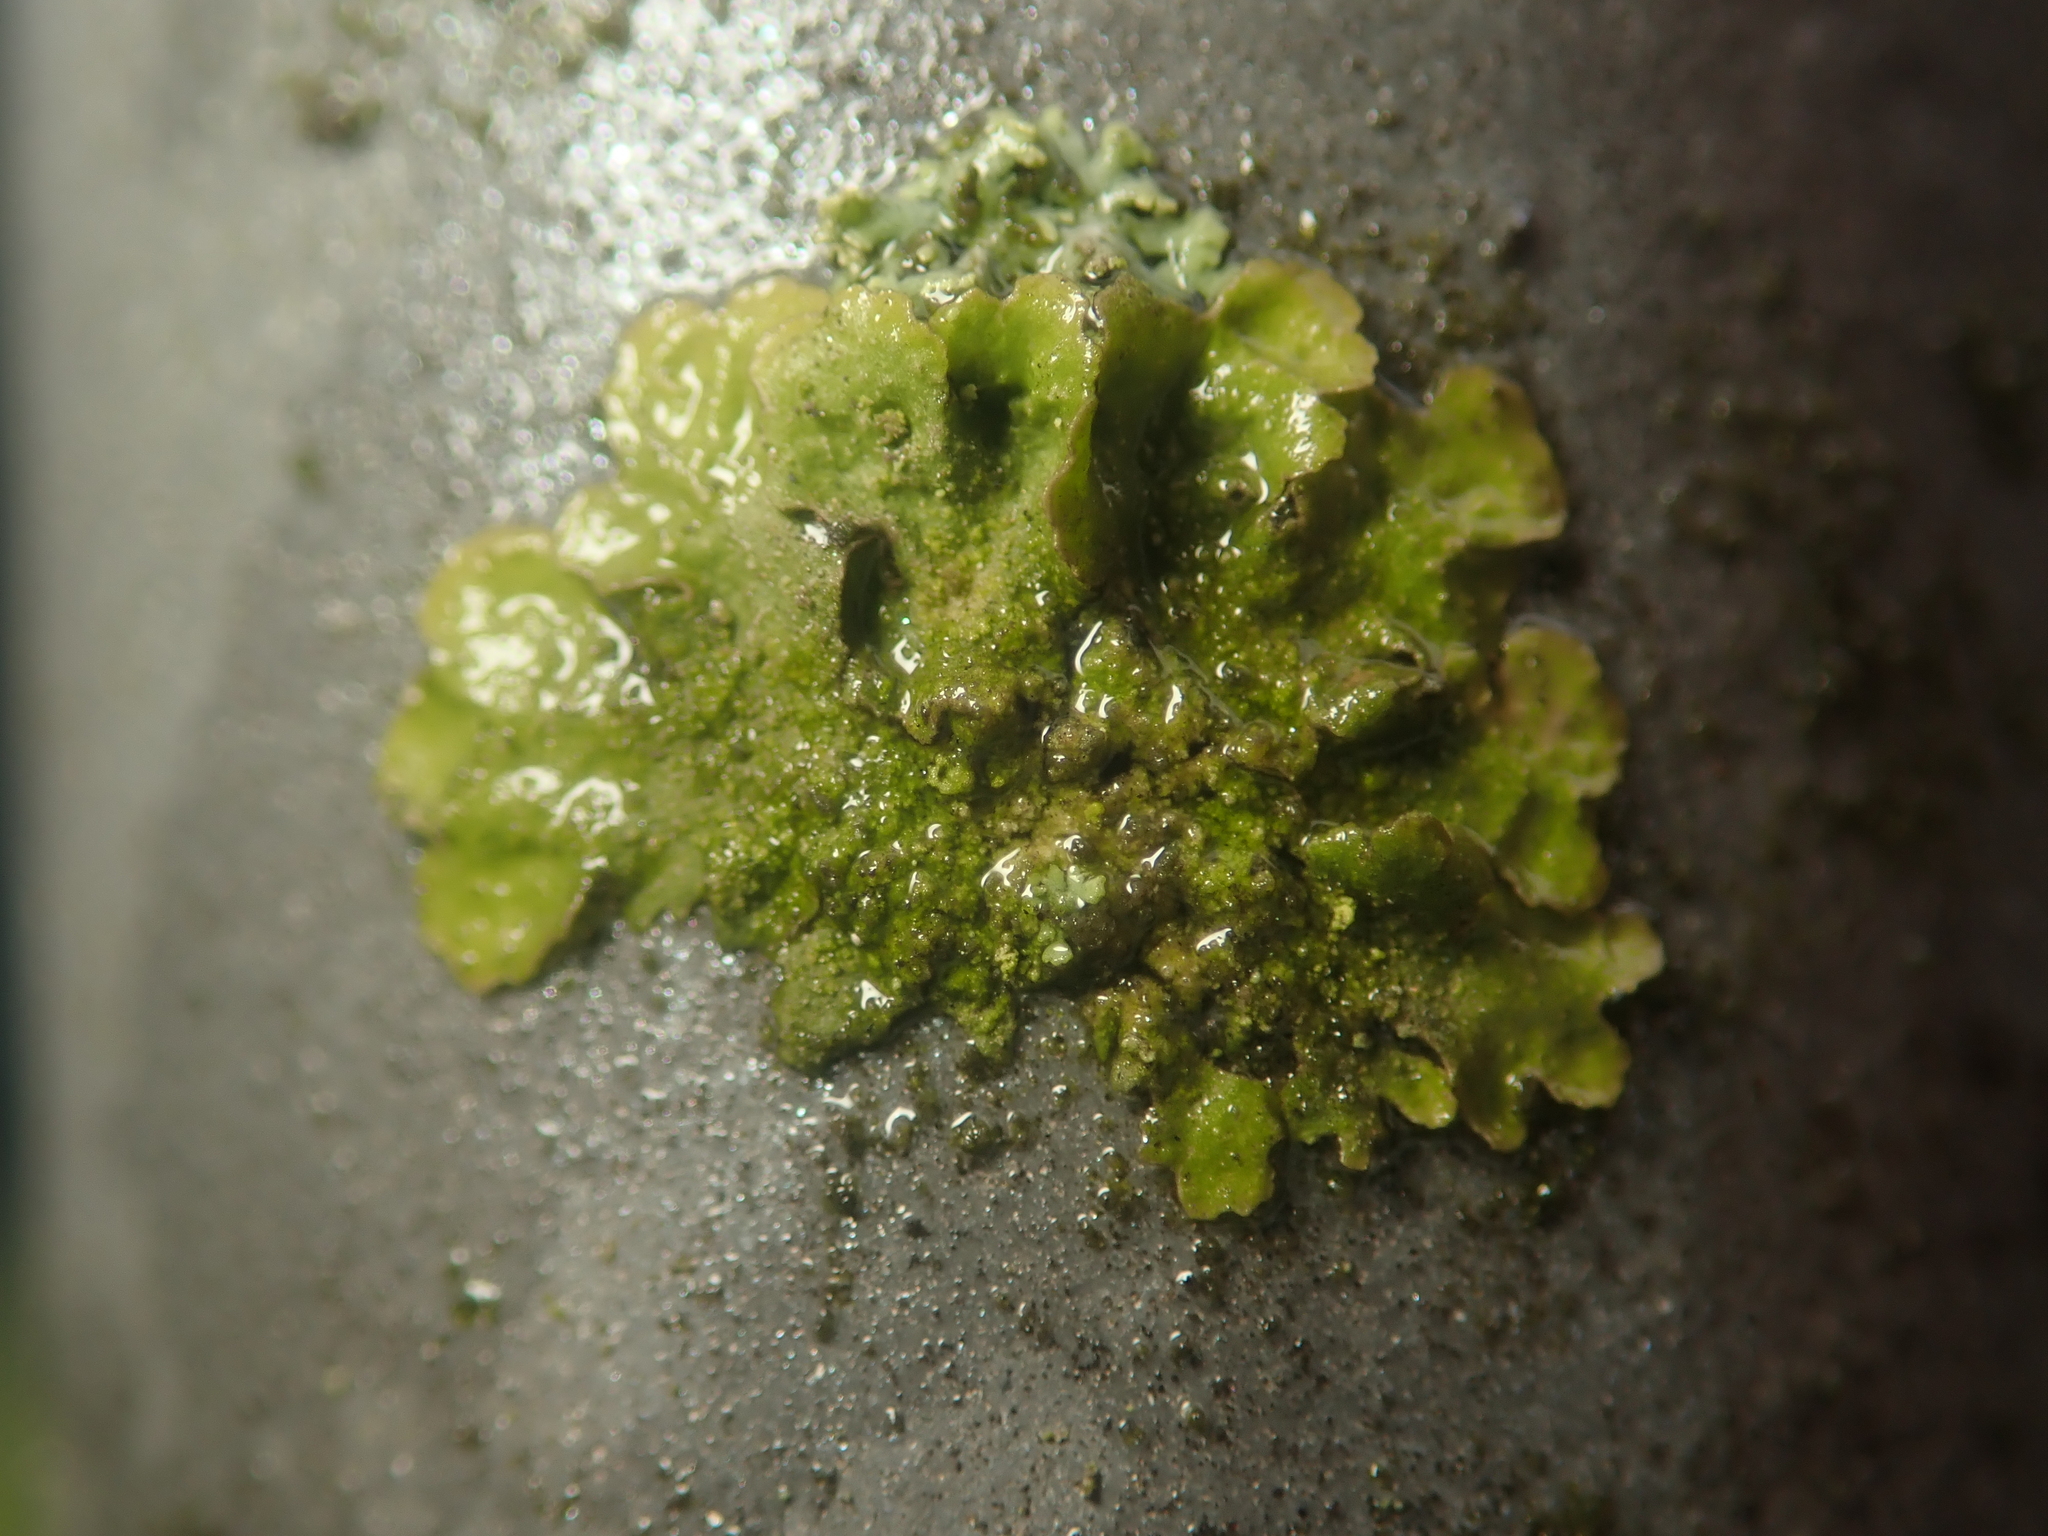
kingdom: Fungi
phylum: Ascomycota
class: Lecanoromycetes
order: Lecanorales
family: Parmeliaceae
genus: Melanohalea
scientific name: Melanohalea exasperatula
